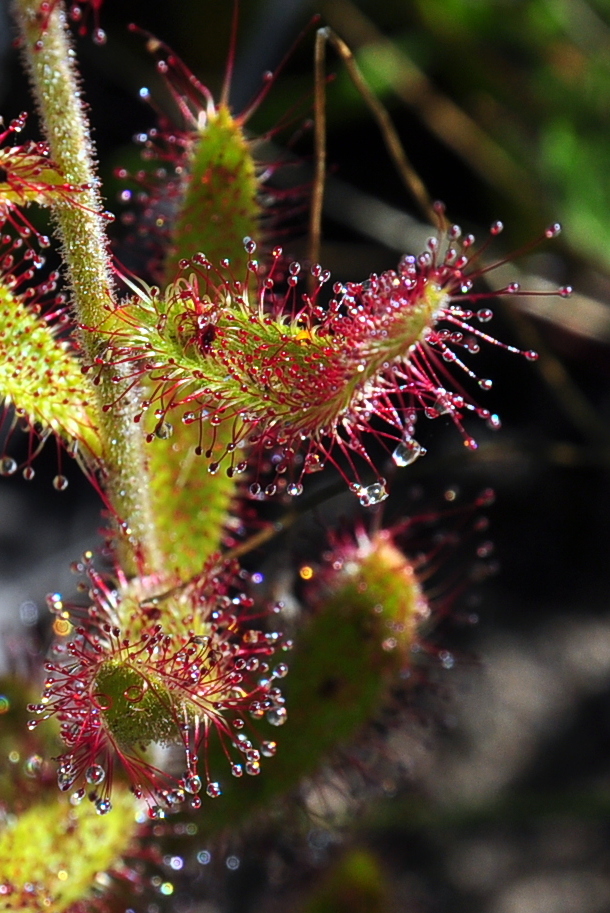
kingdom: Plantae
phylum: Tracheophyta
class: Magnoliopsida
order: Caryophyllales
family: Droseraceae
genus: Drosera
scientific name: Drosera cistiflora
